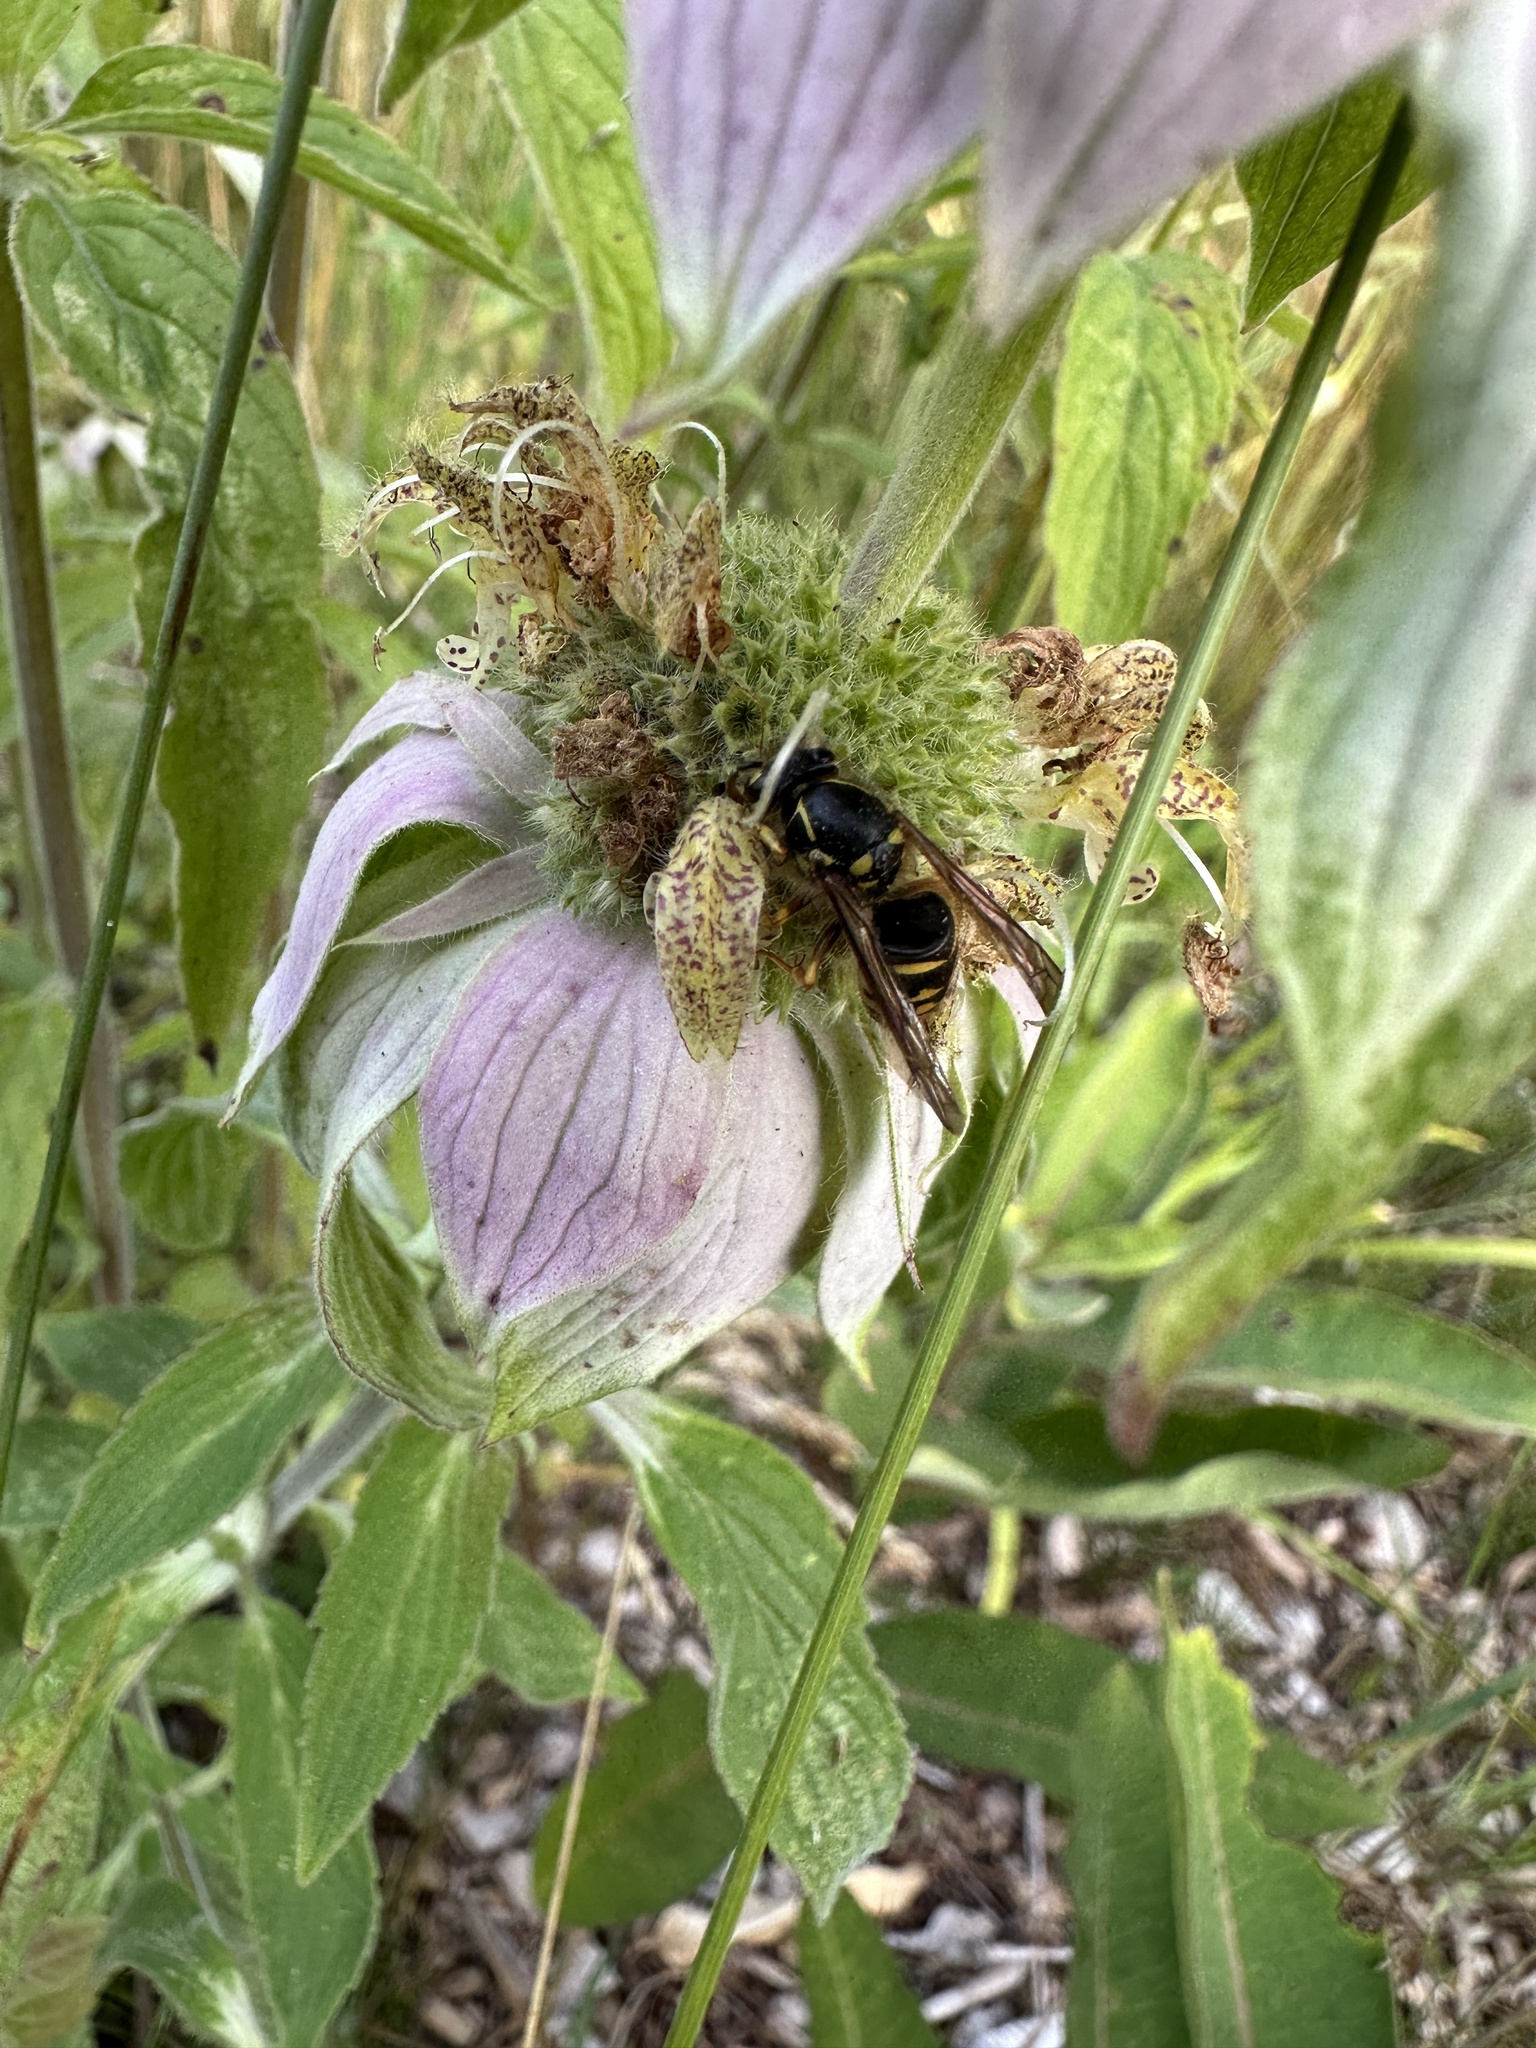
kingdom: Animalia
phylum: Arthropoda
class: Insecta
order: Hymenoptera
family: Vespidae
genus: Dolichovespula
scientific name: Dolichovespula arenaria
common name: Aerial yellowjacket
